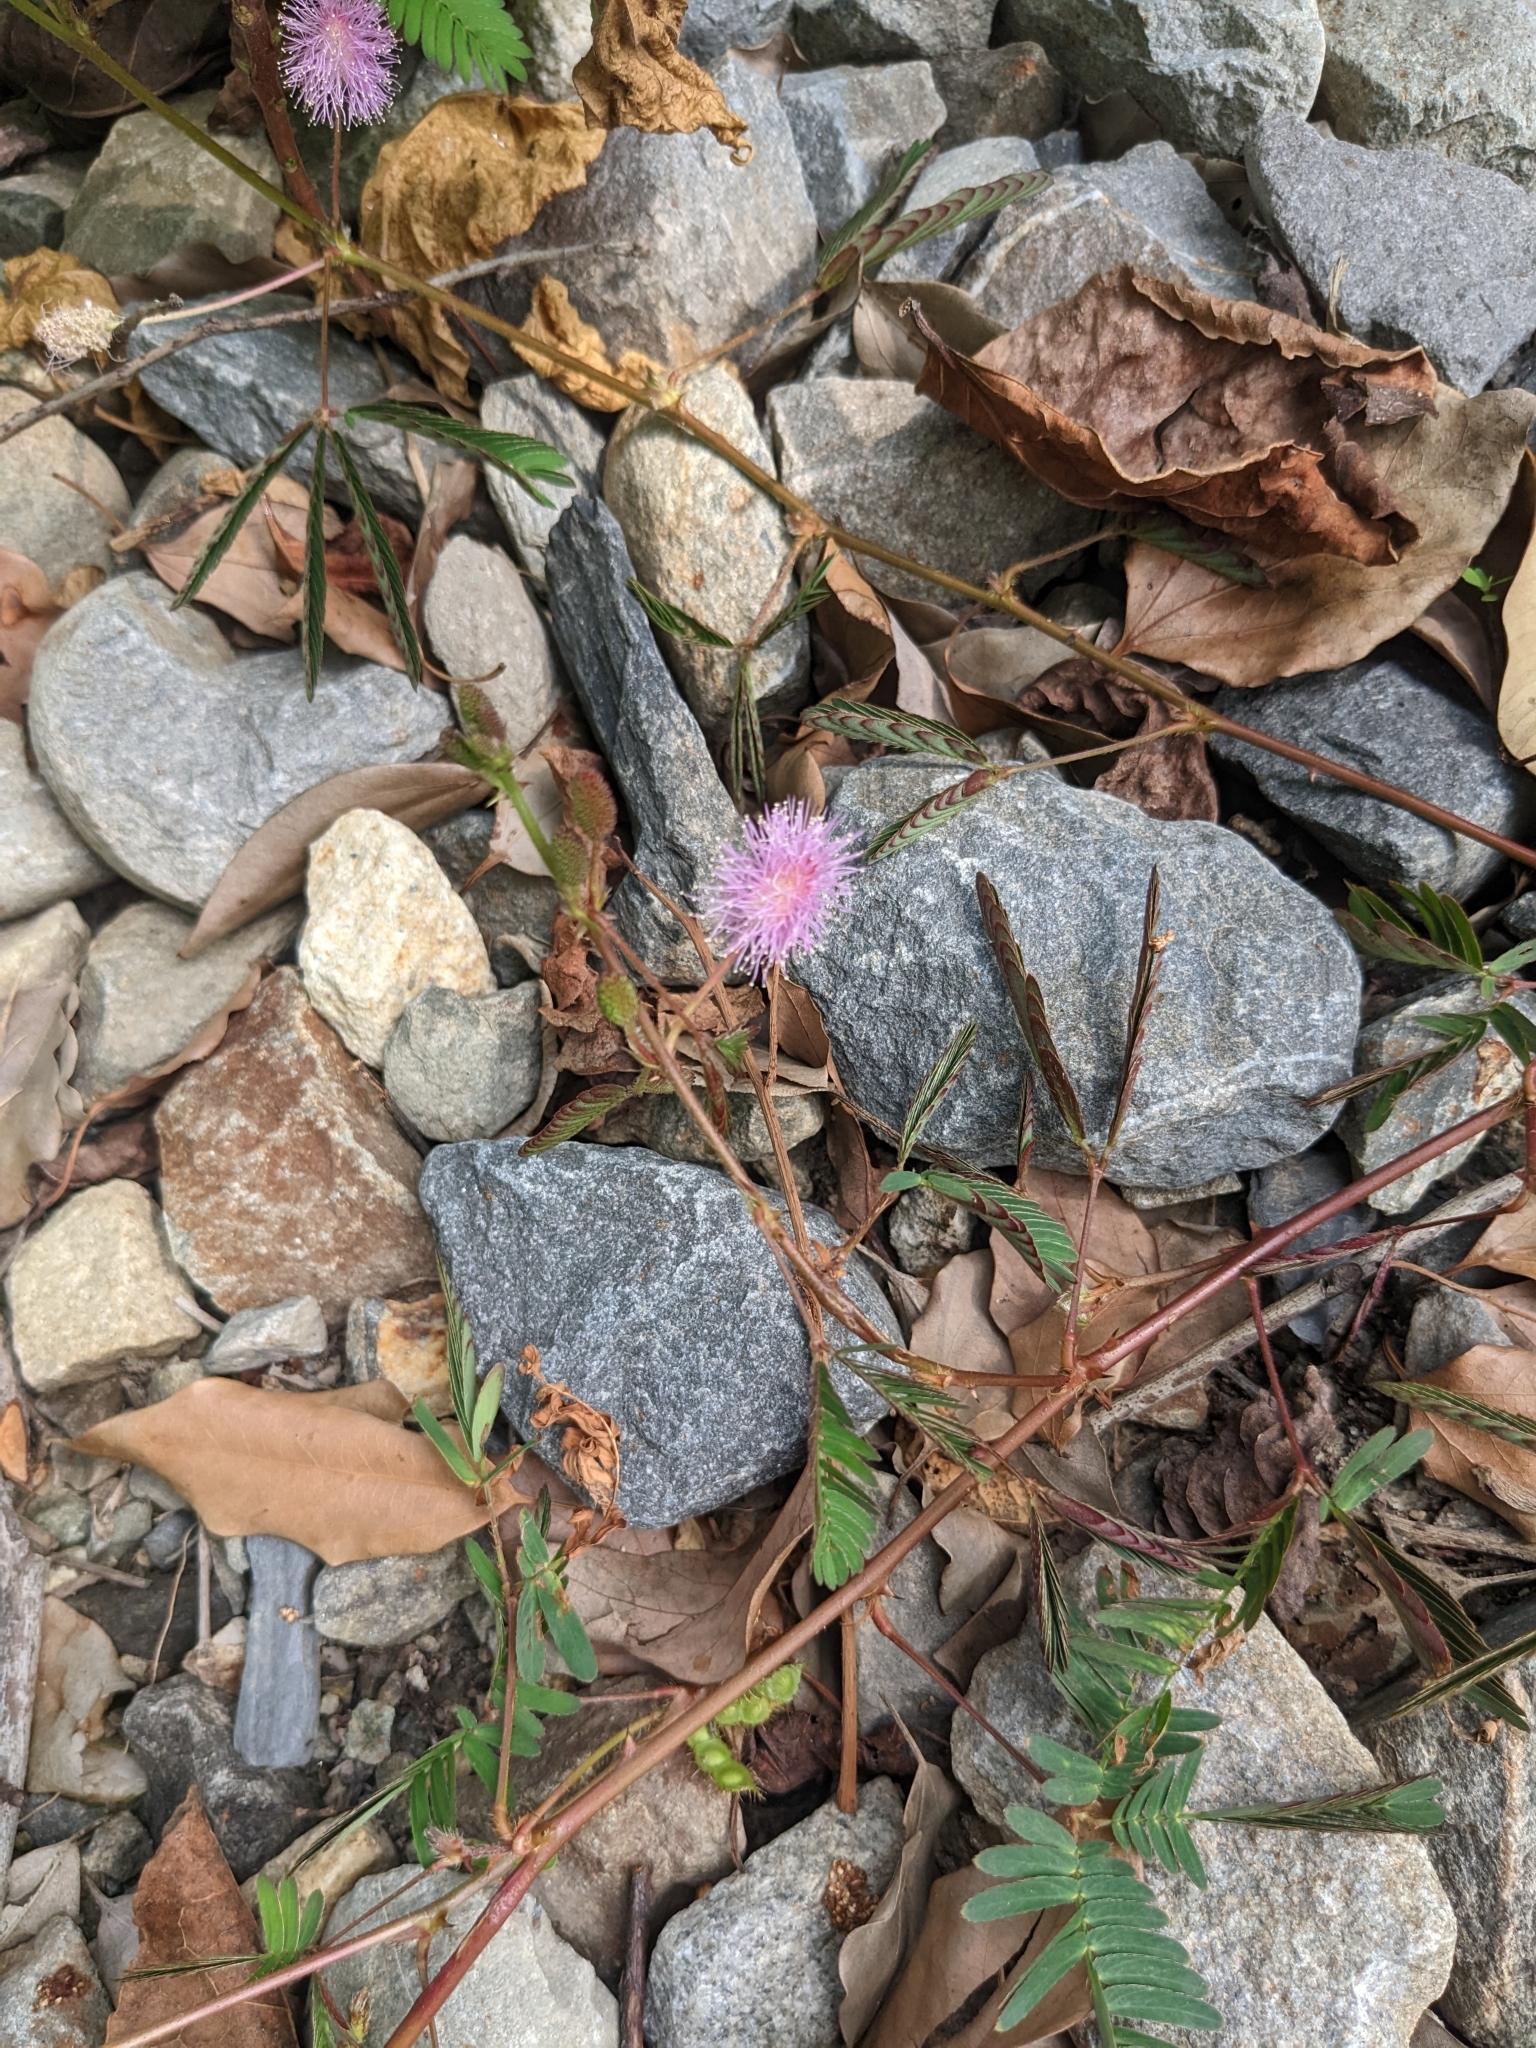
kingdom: Plantae
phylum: Tracheophyta
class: Magnoliopsida
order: Fabales
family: Fabaceae
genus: Mimosa
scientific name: Mimosa pudica
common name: Sensitive plant
